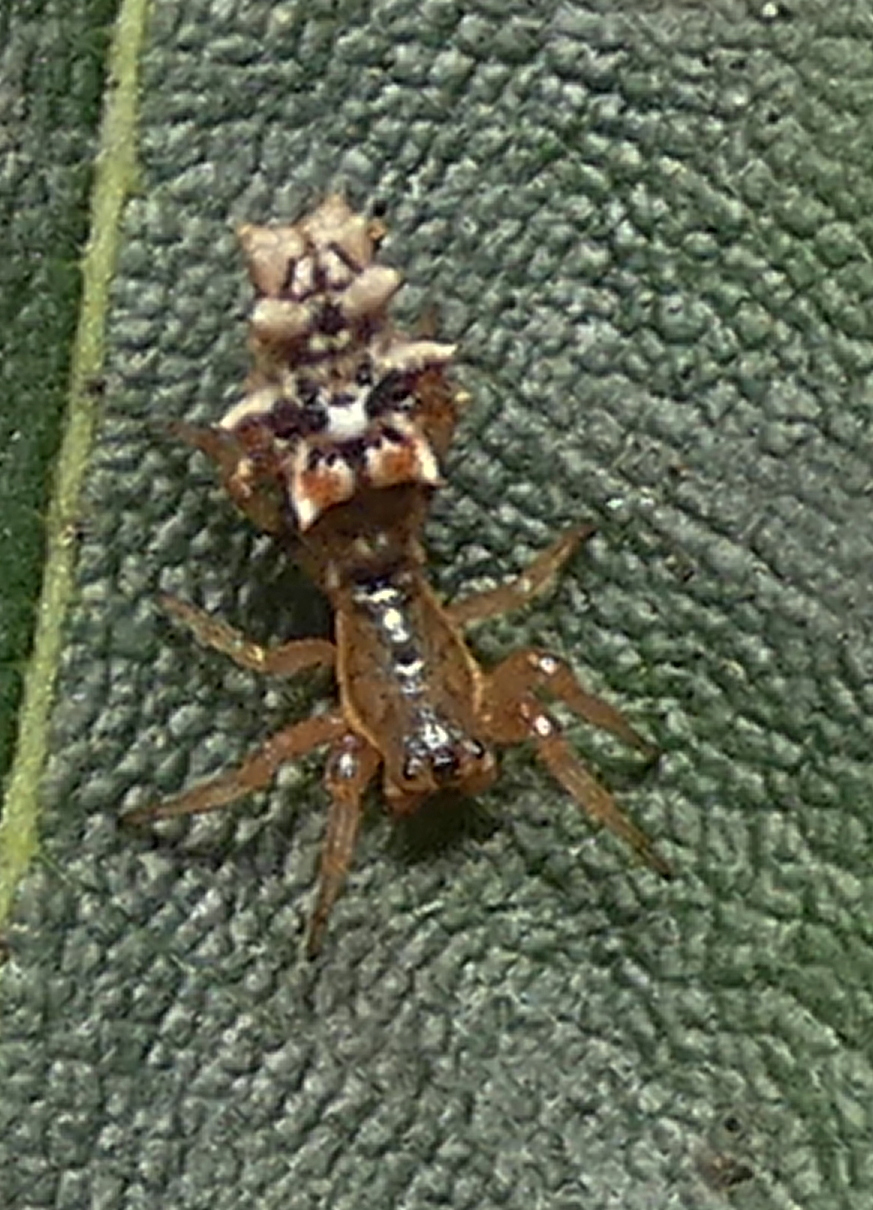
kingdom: Animalia
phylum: Arthropoda
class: Arachnida
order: Araneae
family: Araneidae
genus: Micrathena
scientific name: Micrathena horrida
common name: Orb weavers
